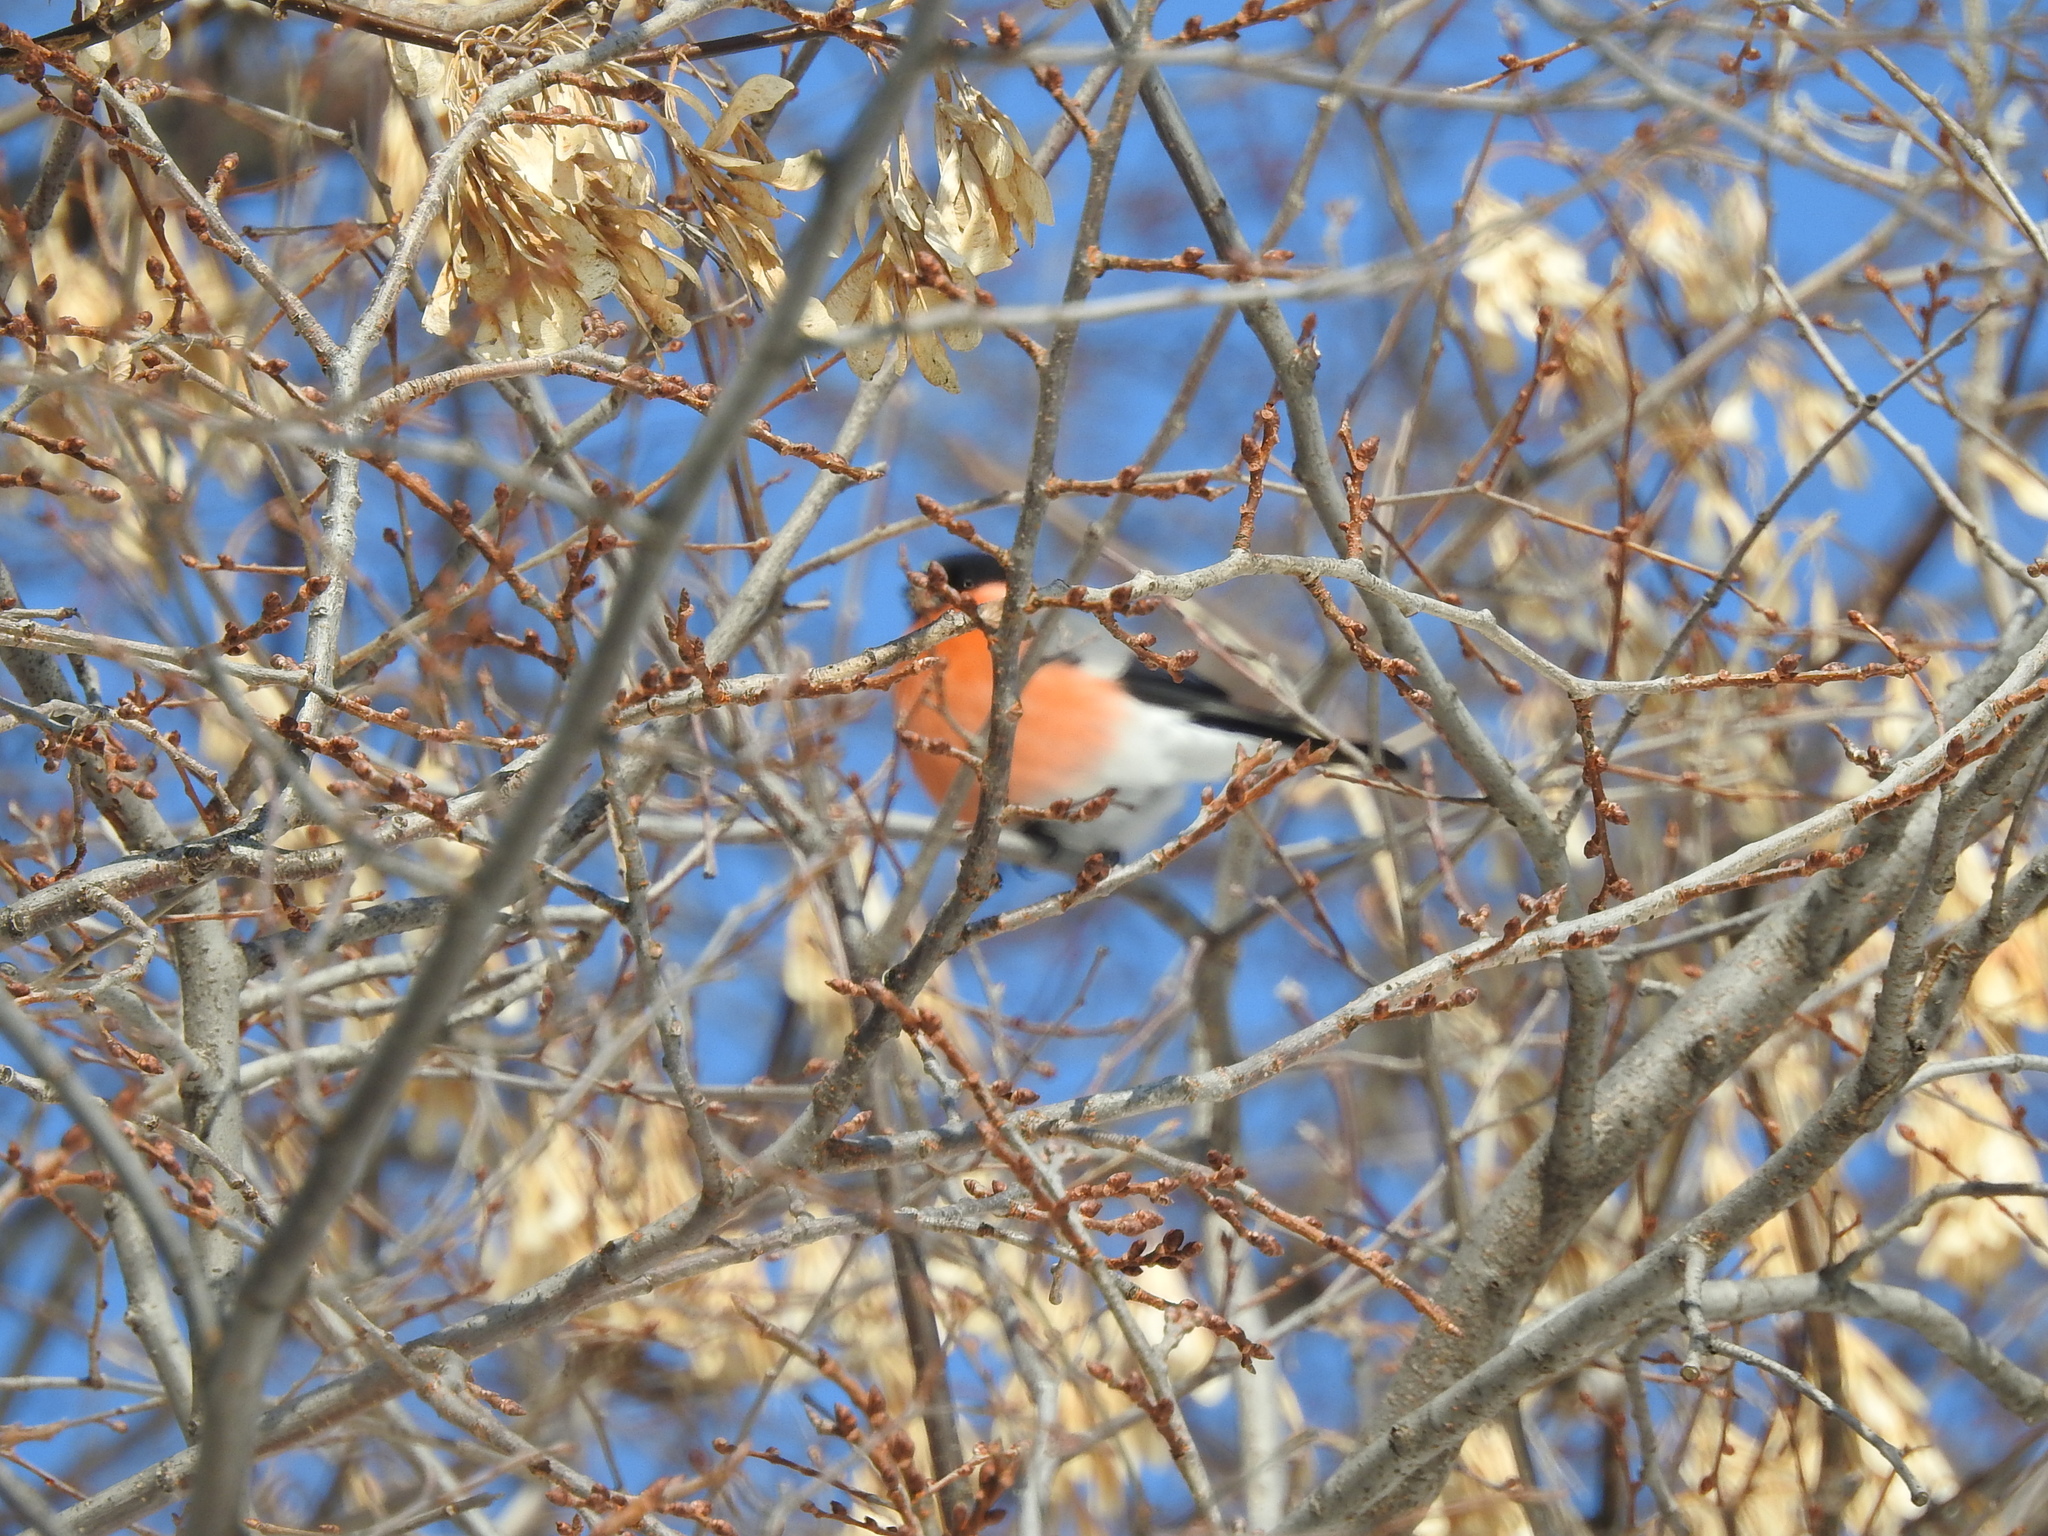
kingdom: Animalia
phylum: Chordata
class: Aves
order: Passeriformes
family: Fringillidae
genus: Pyrrhula
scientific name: Pyrrhula pyrrhula
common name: Eurasian bullfinch
